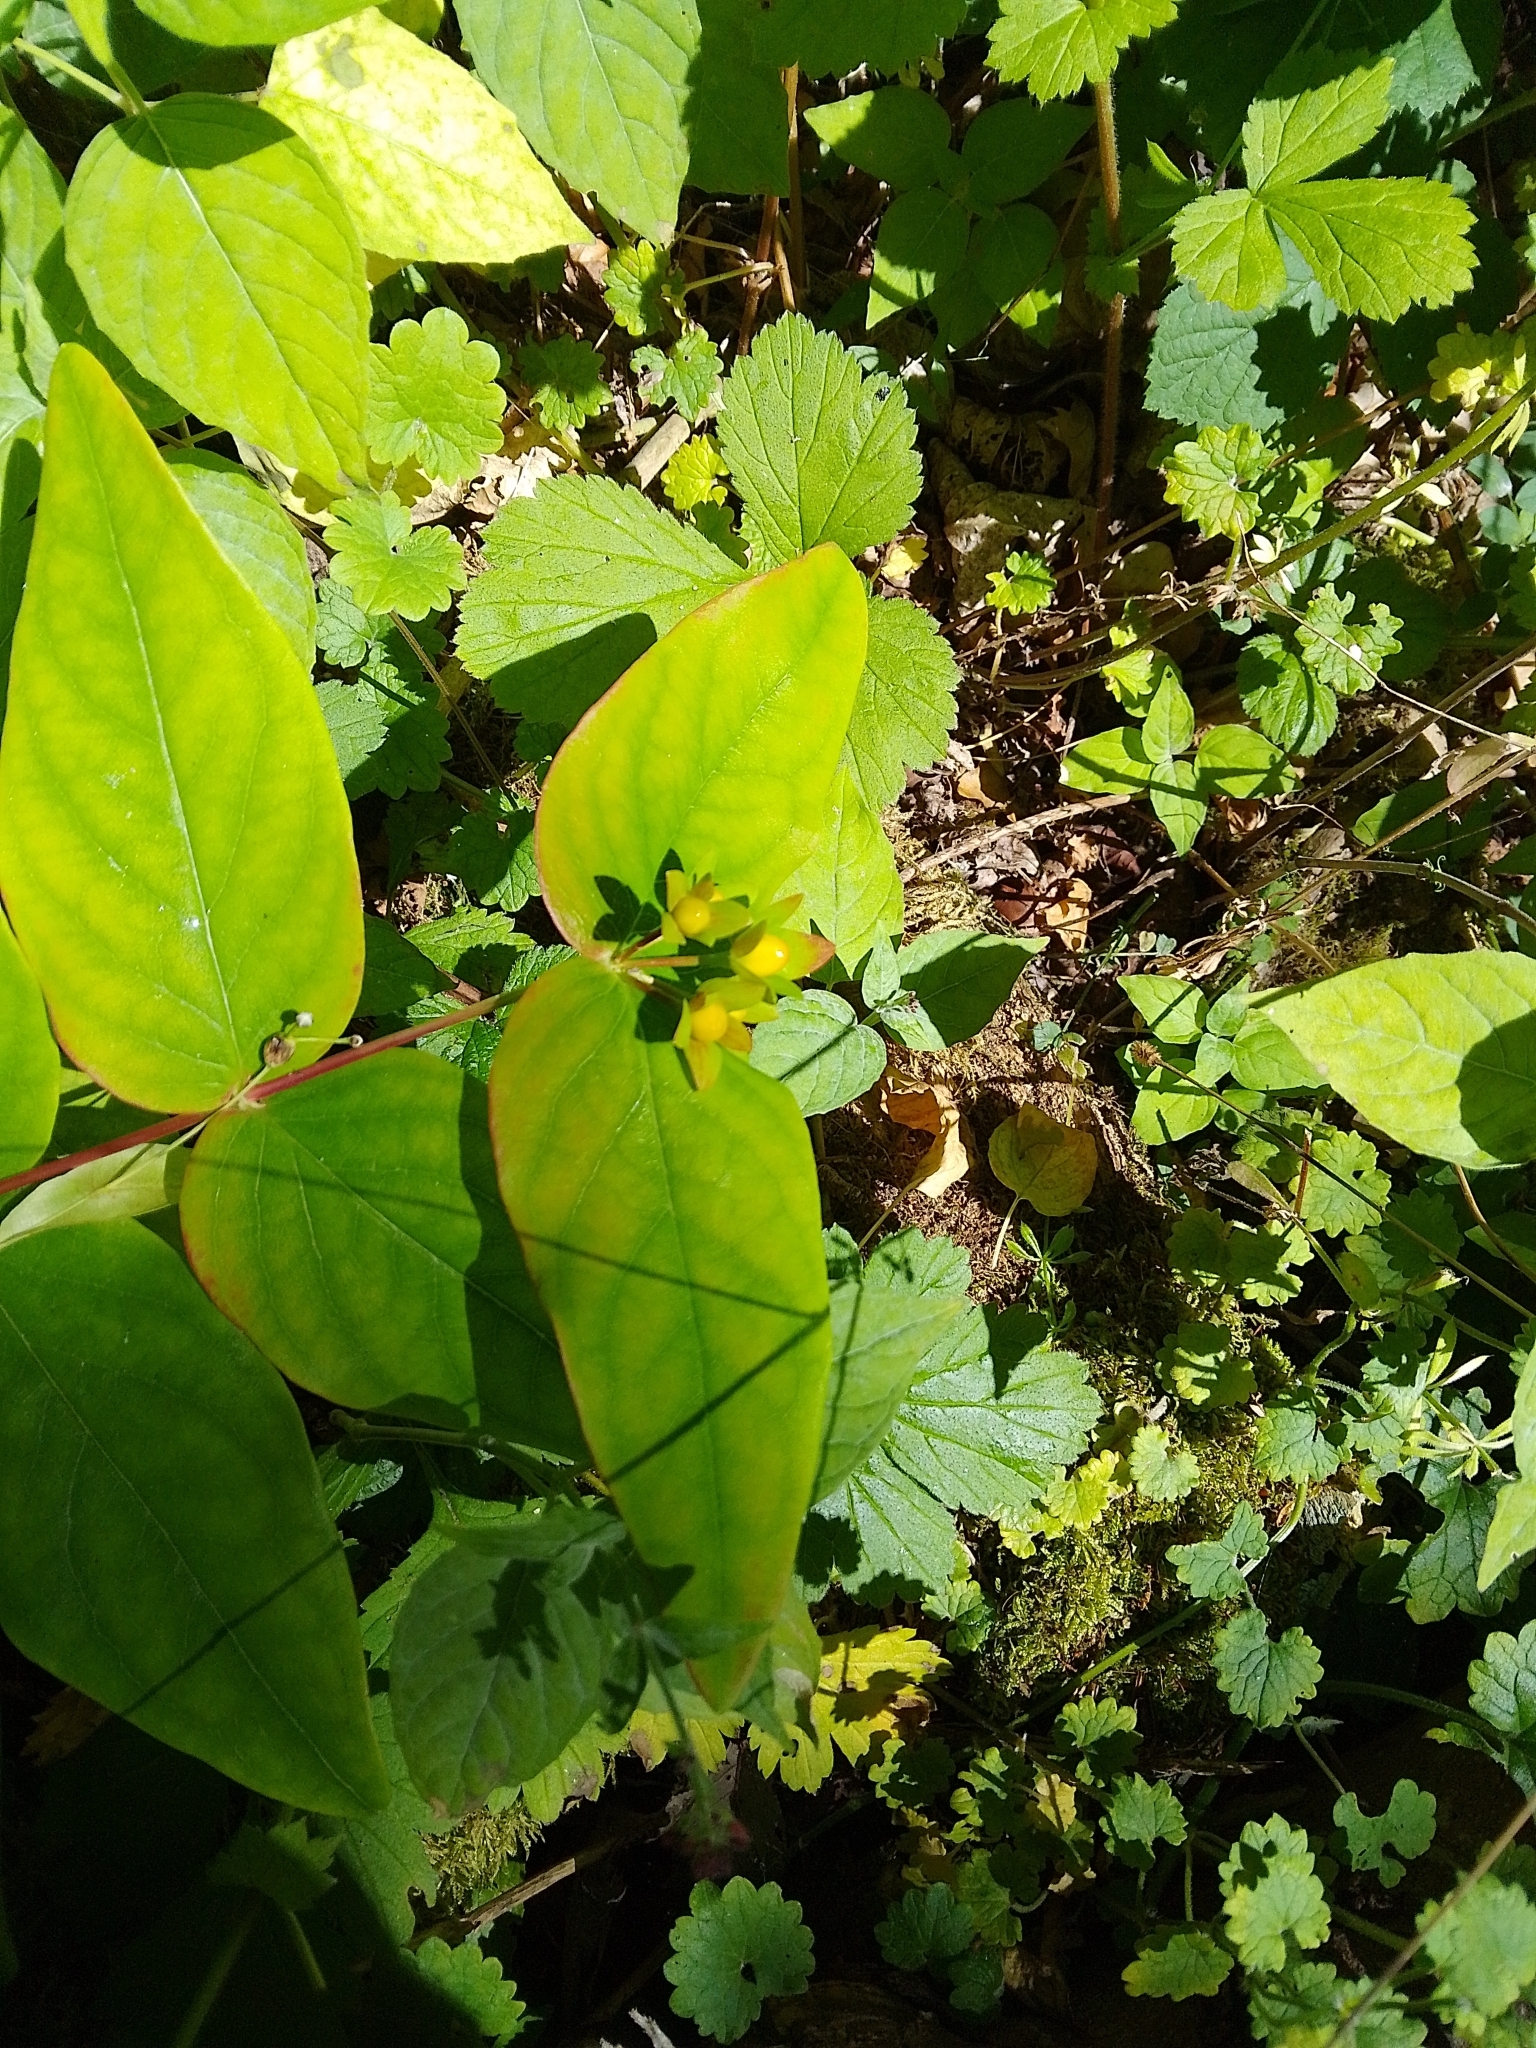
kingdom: Plantae
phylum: Tracheophyta
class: Magnoliopsida
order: Malpighiales
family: Hypericaceae
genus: Hypericum
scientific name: Hypericum androsaemum
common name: Sweet-amber
